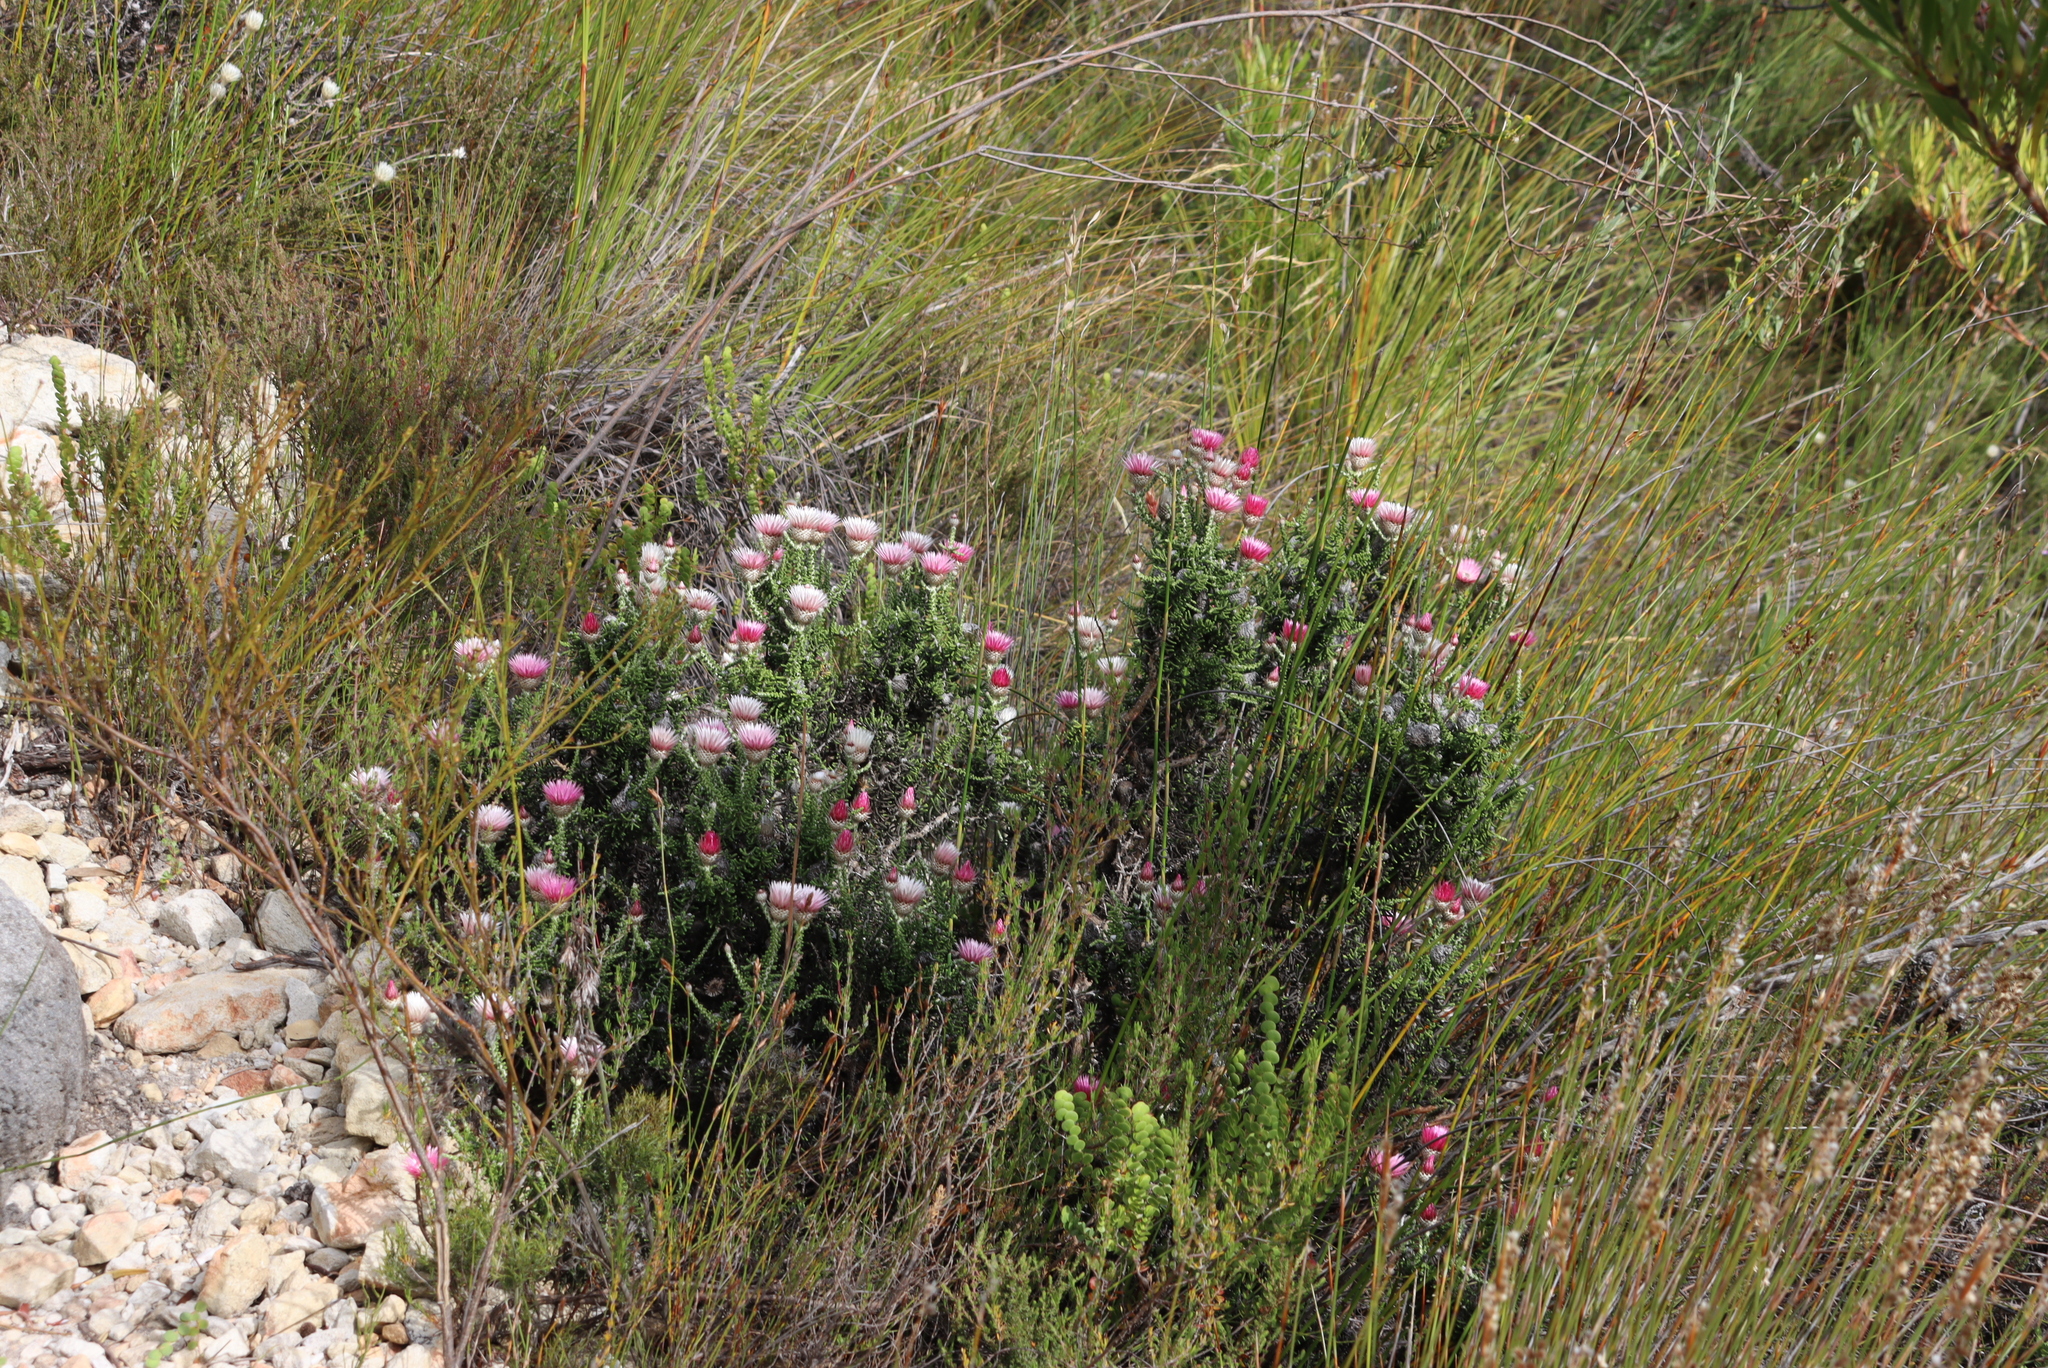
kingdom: Plantae
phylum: Tracheophyta
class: Magnoliopsida
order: Asterales
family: Asteraceae
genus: Phaenocoma
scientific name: Phaenocoma prolifera
